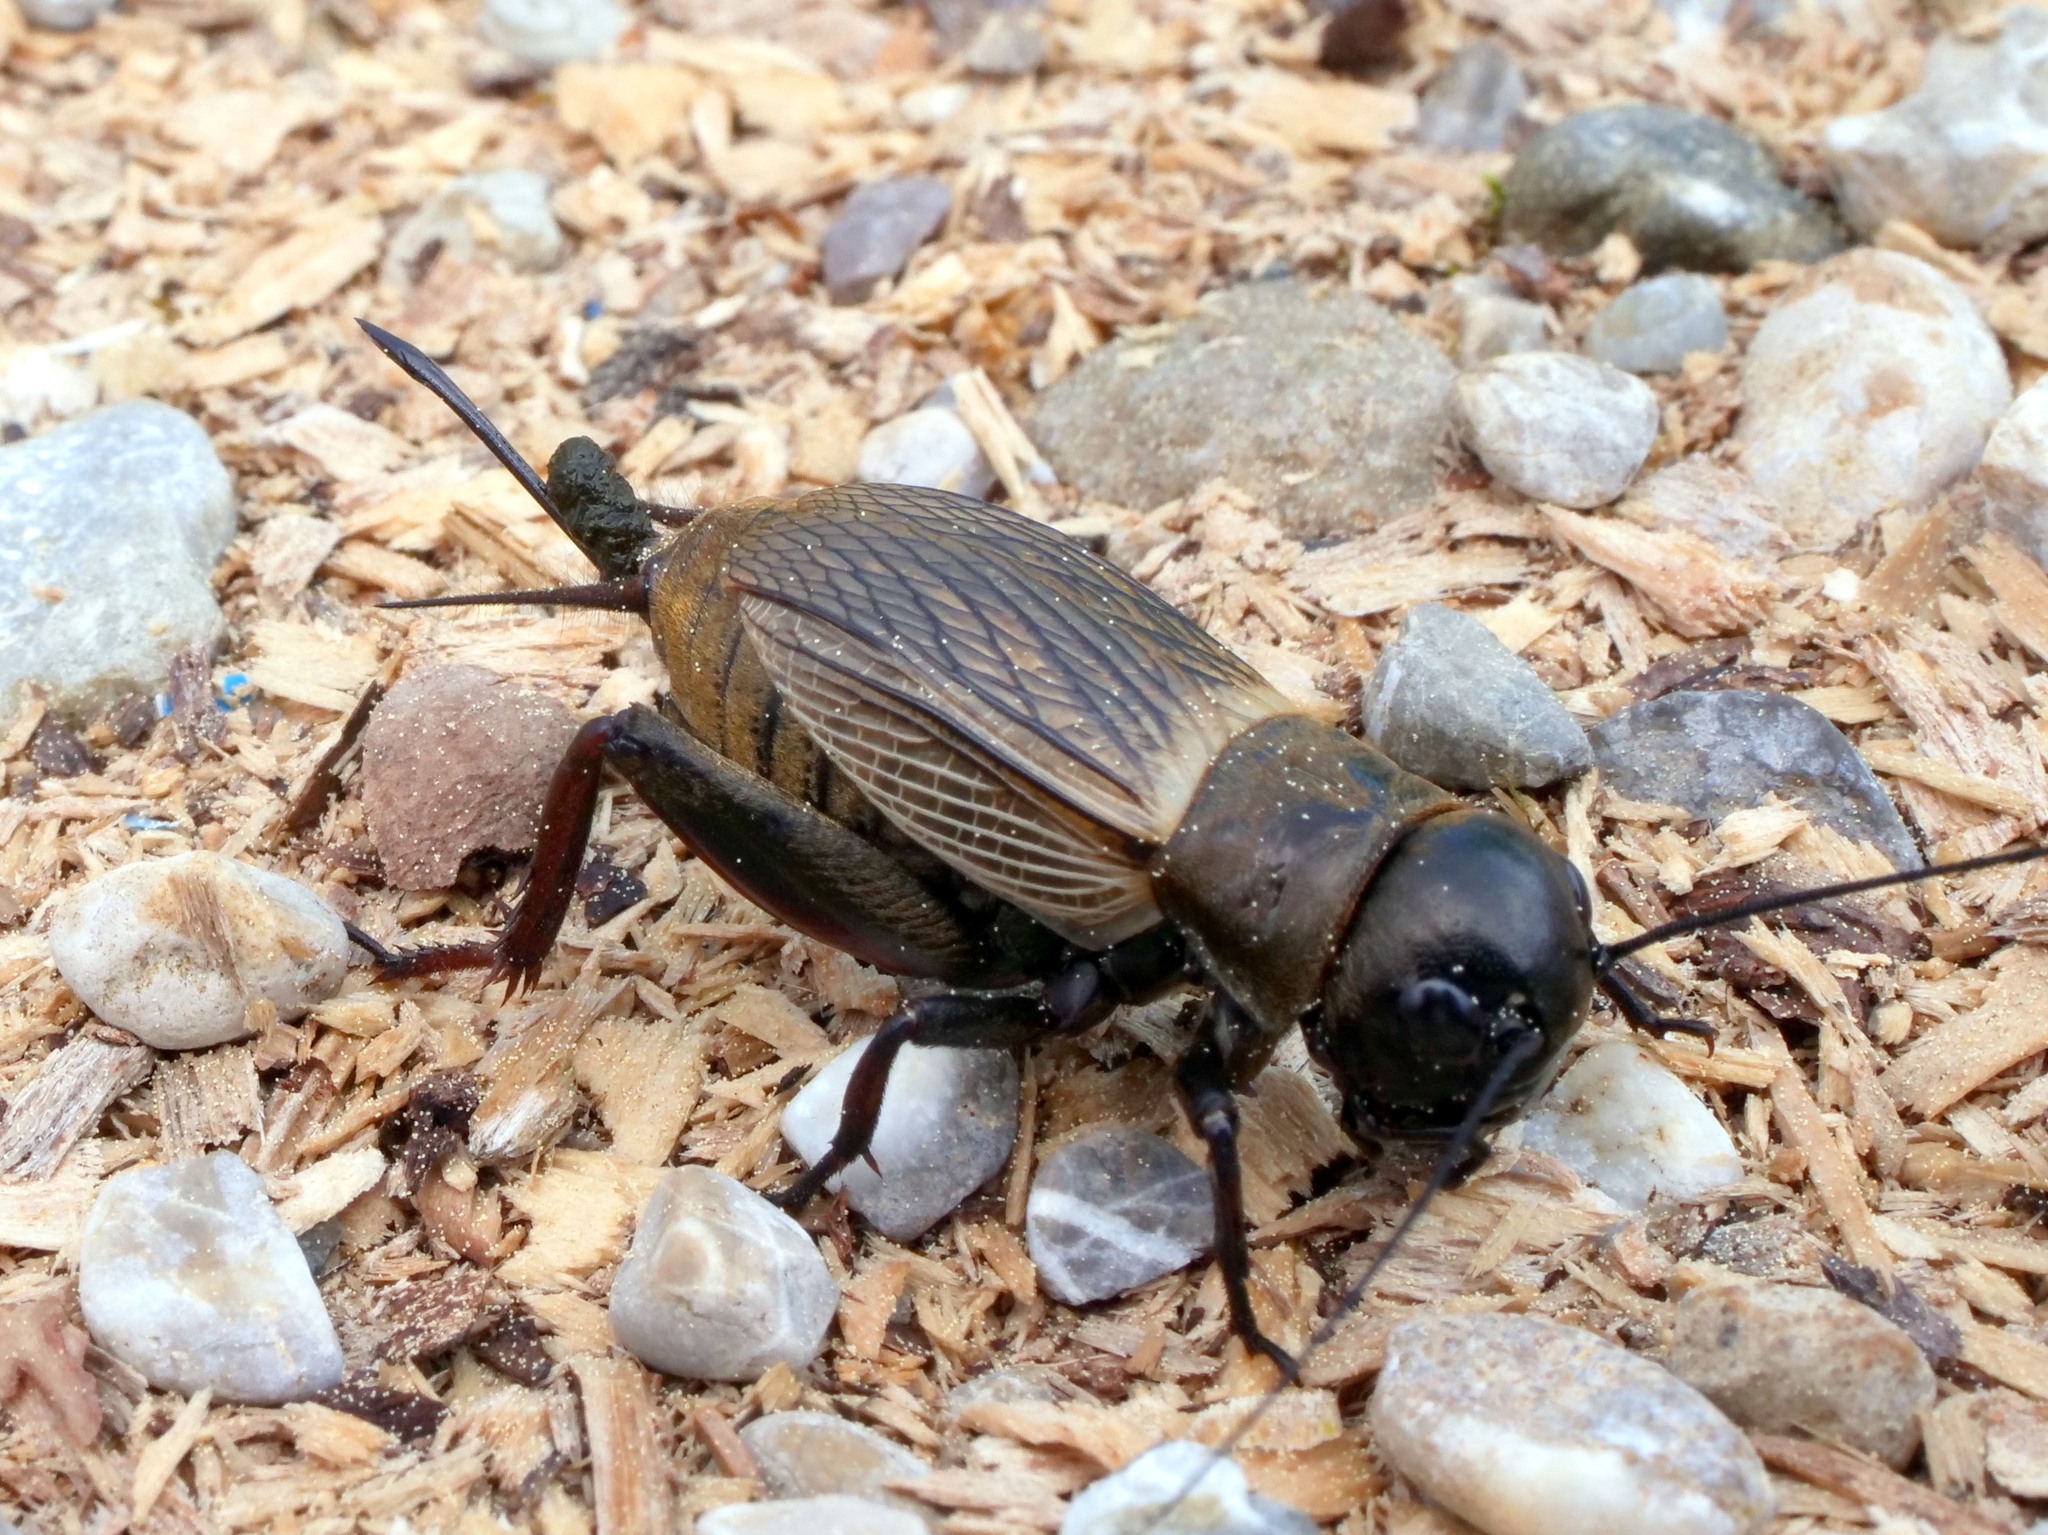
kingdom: Animalia
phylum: Arthropoda
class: Insecta
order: Orthoptera
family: Gryllidae
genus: Gryllus
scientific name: Gryllus campestris
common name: Field cricket
